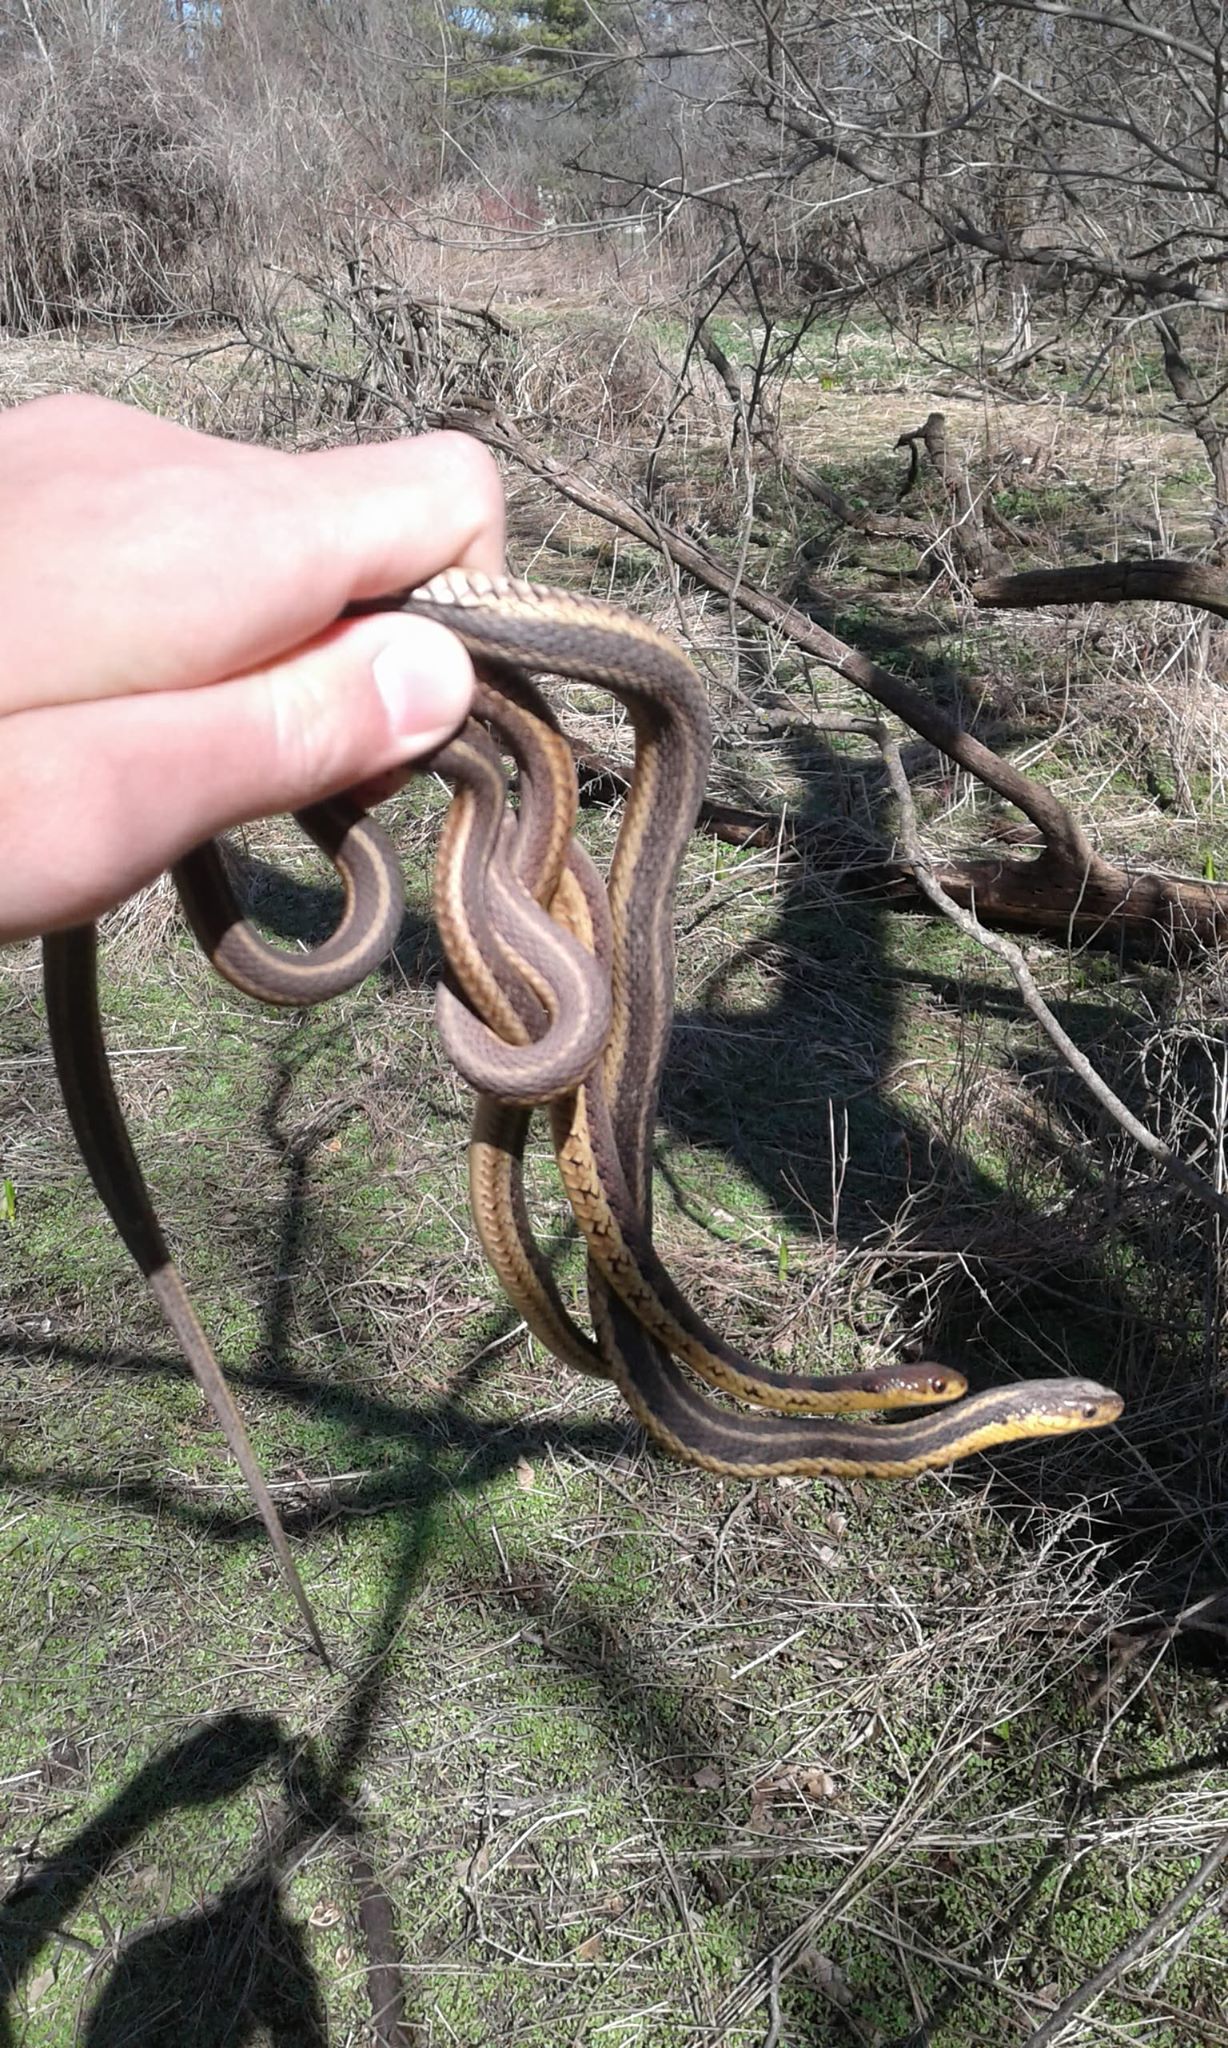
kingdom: Animalia
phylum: Chordata
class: Squamata
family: Colubridae
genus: Thamnophis
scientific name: Thamnophis sirtalis
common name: Common garter snake
